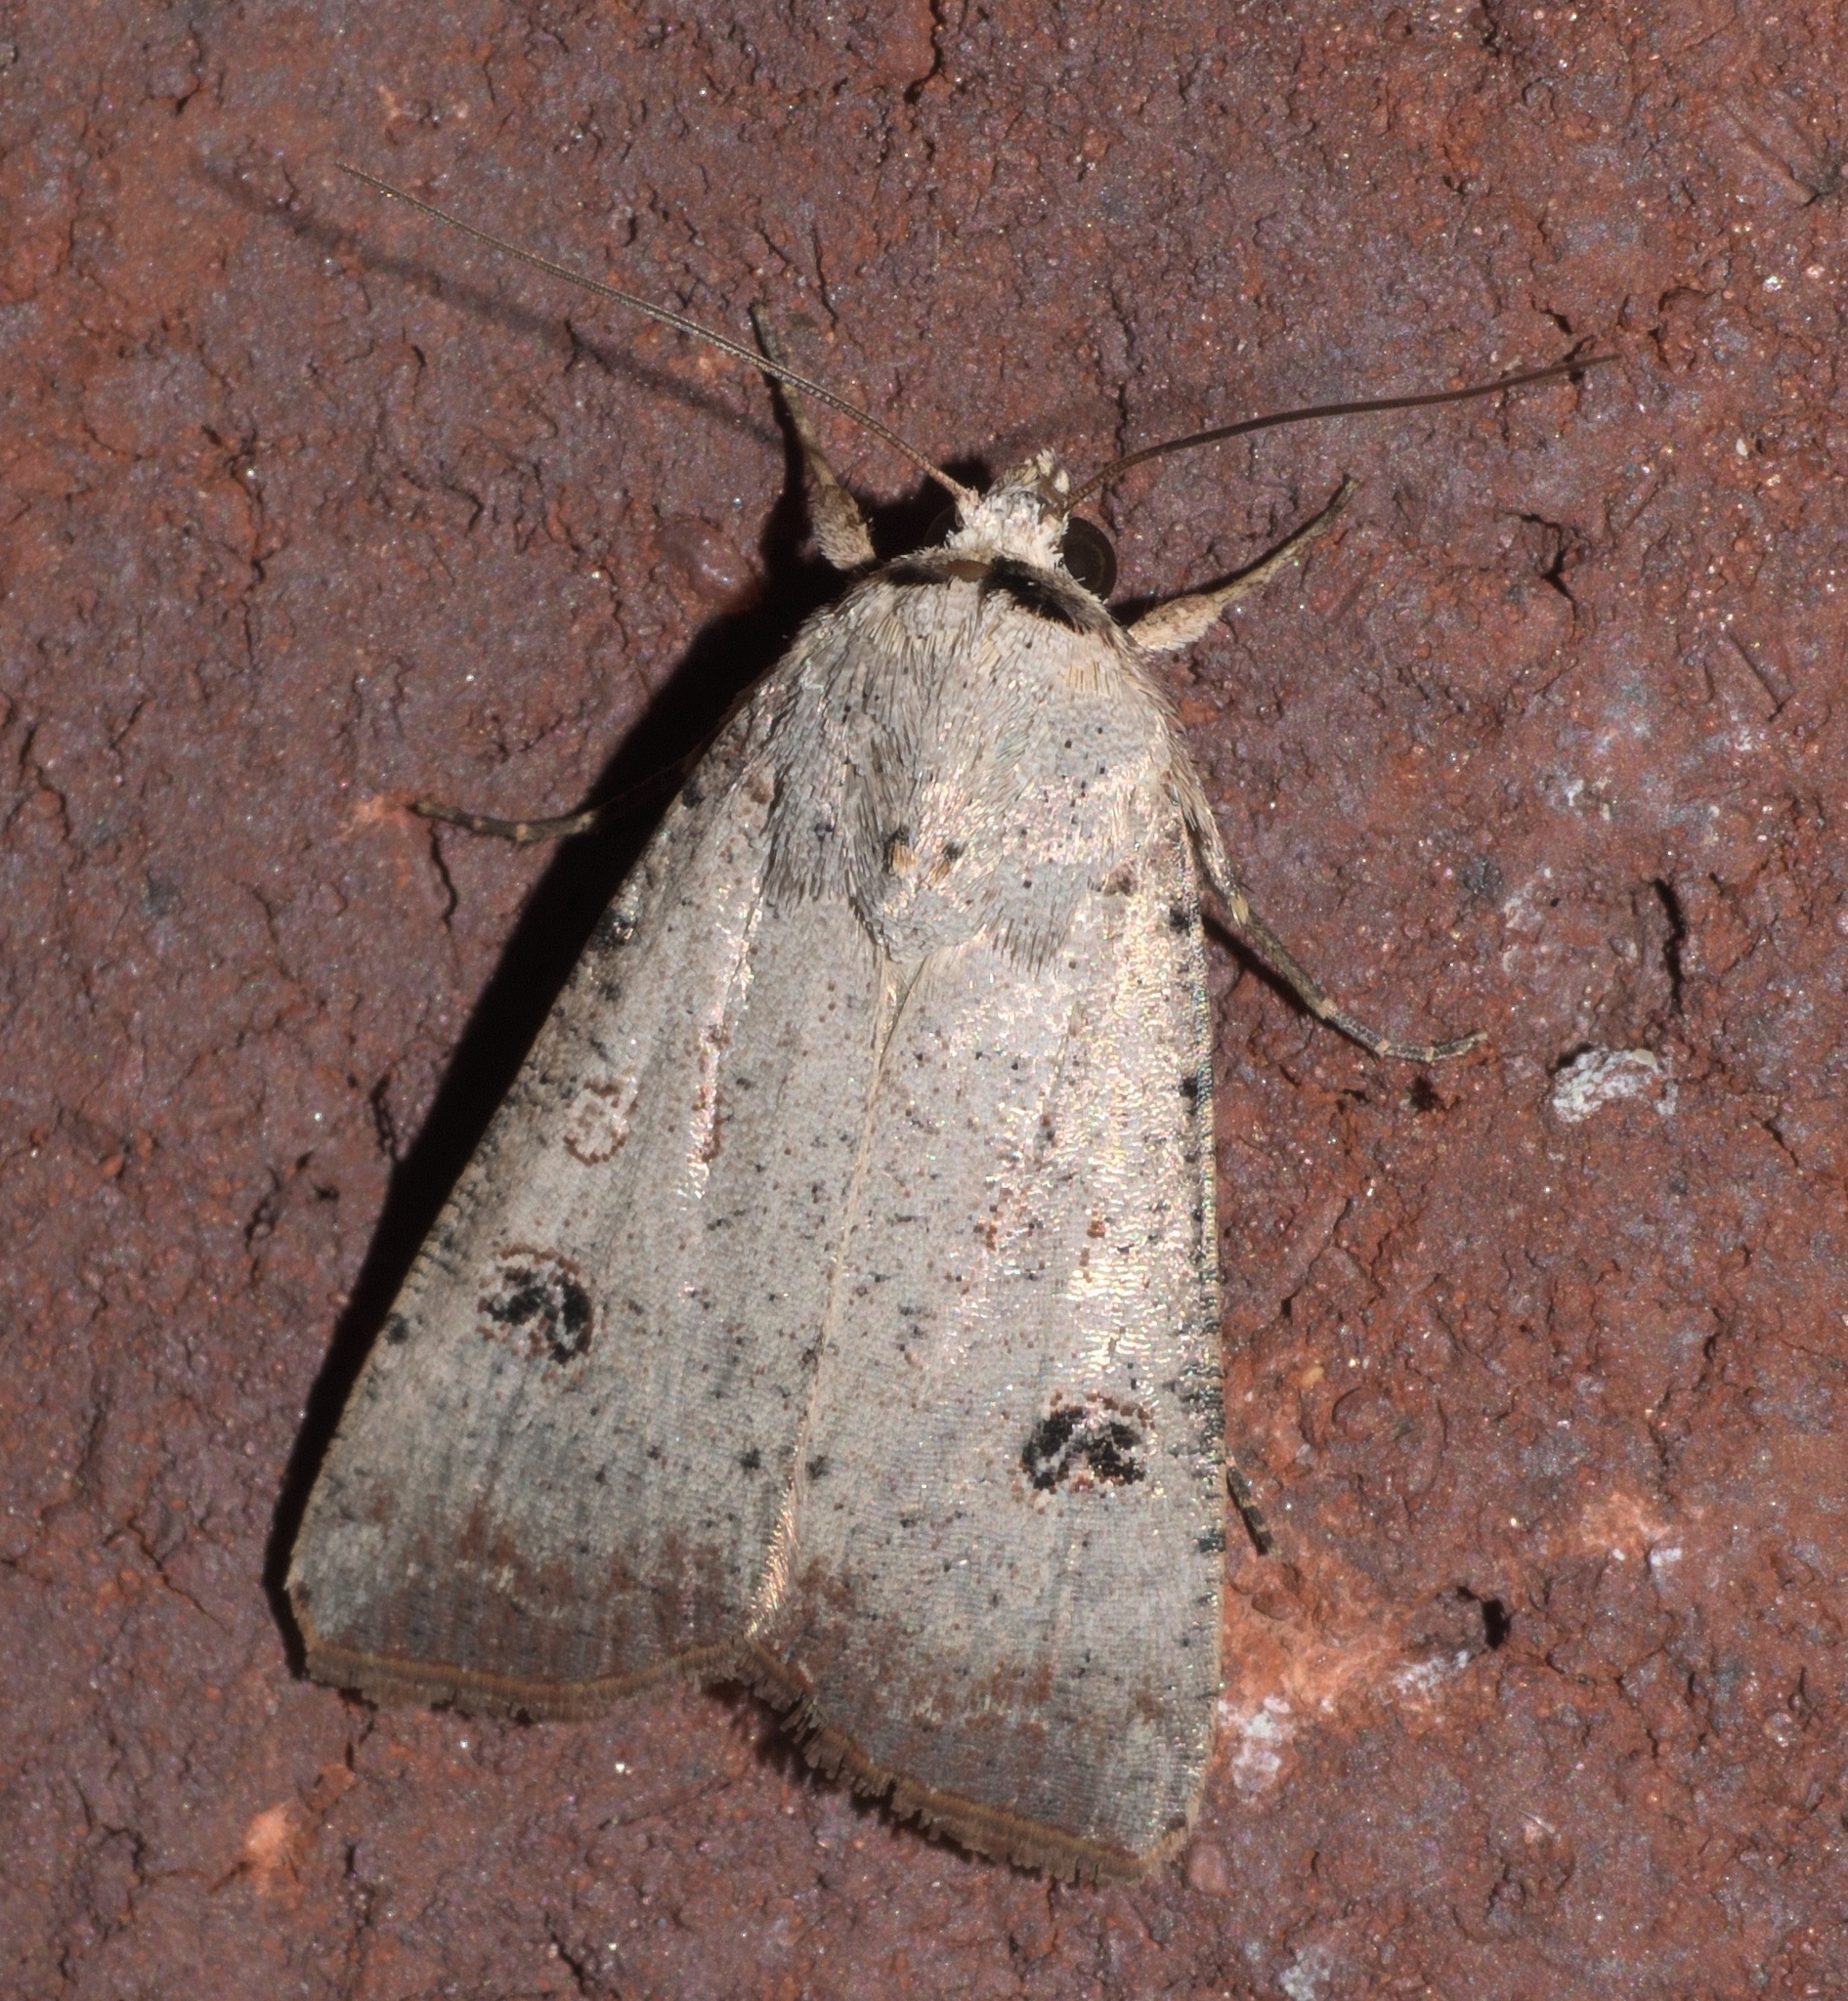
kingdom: Animalia
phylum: Arthropoda
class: Insecta
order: Lepidoptera
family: Noctuidae
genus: Anicla
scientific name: Anicla infecta
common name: Green cutworm
